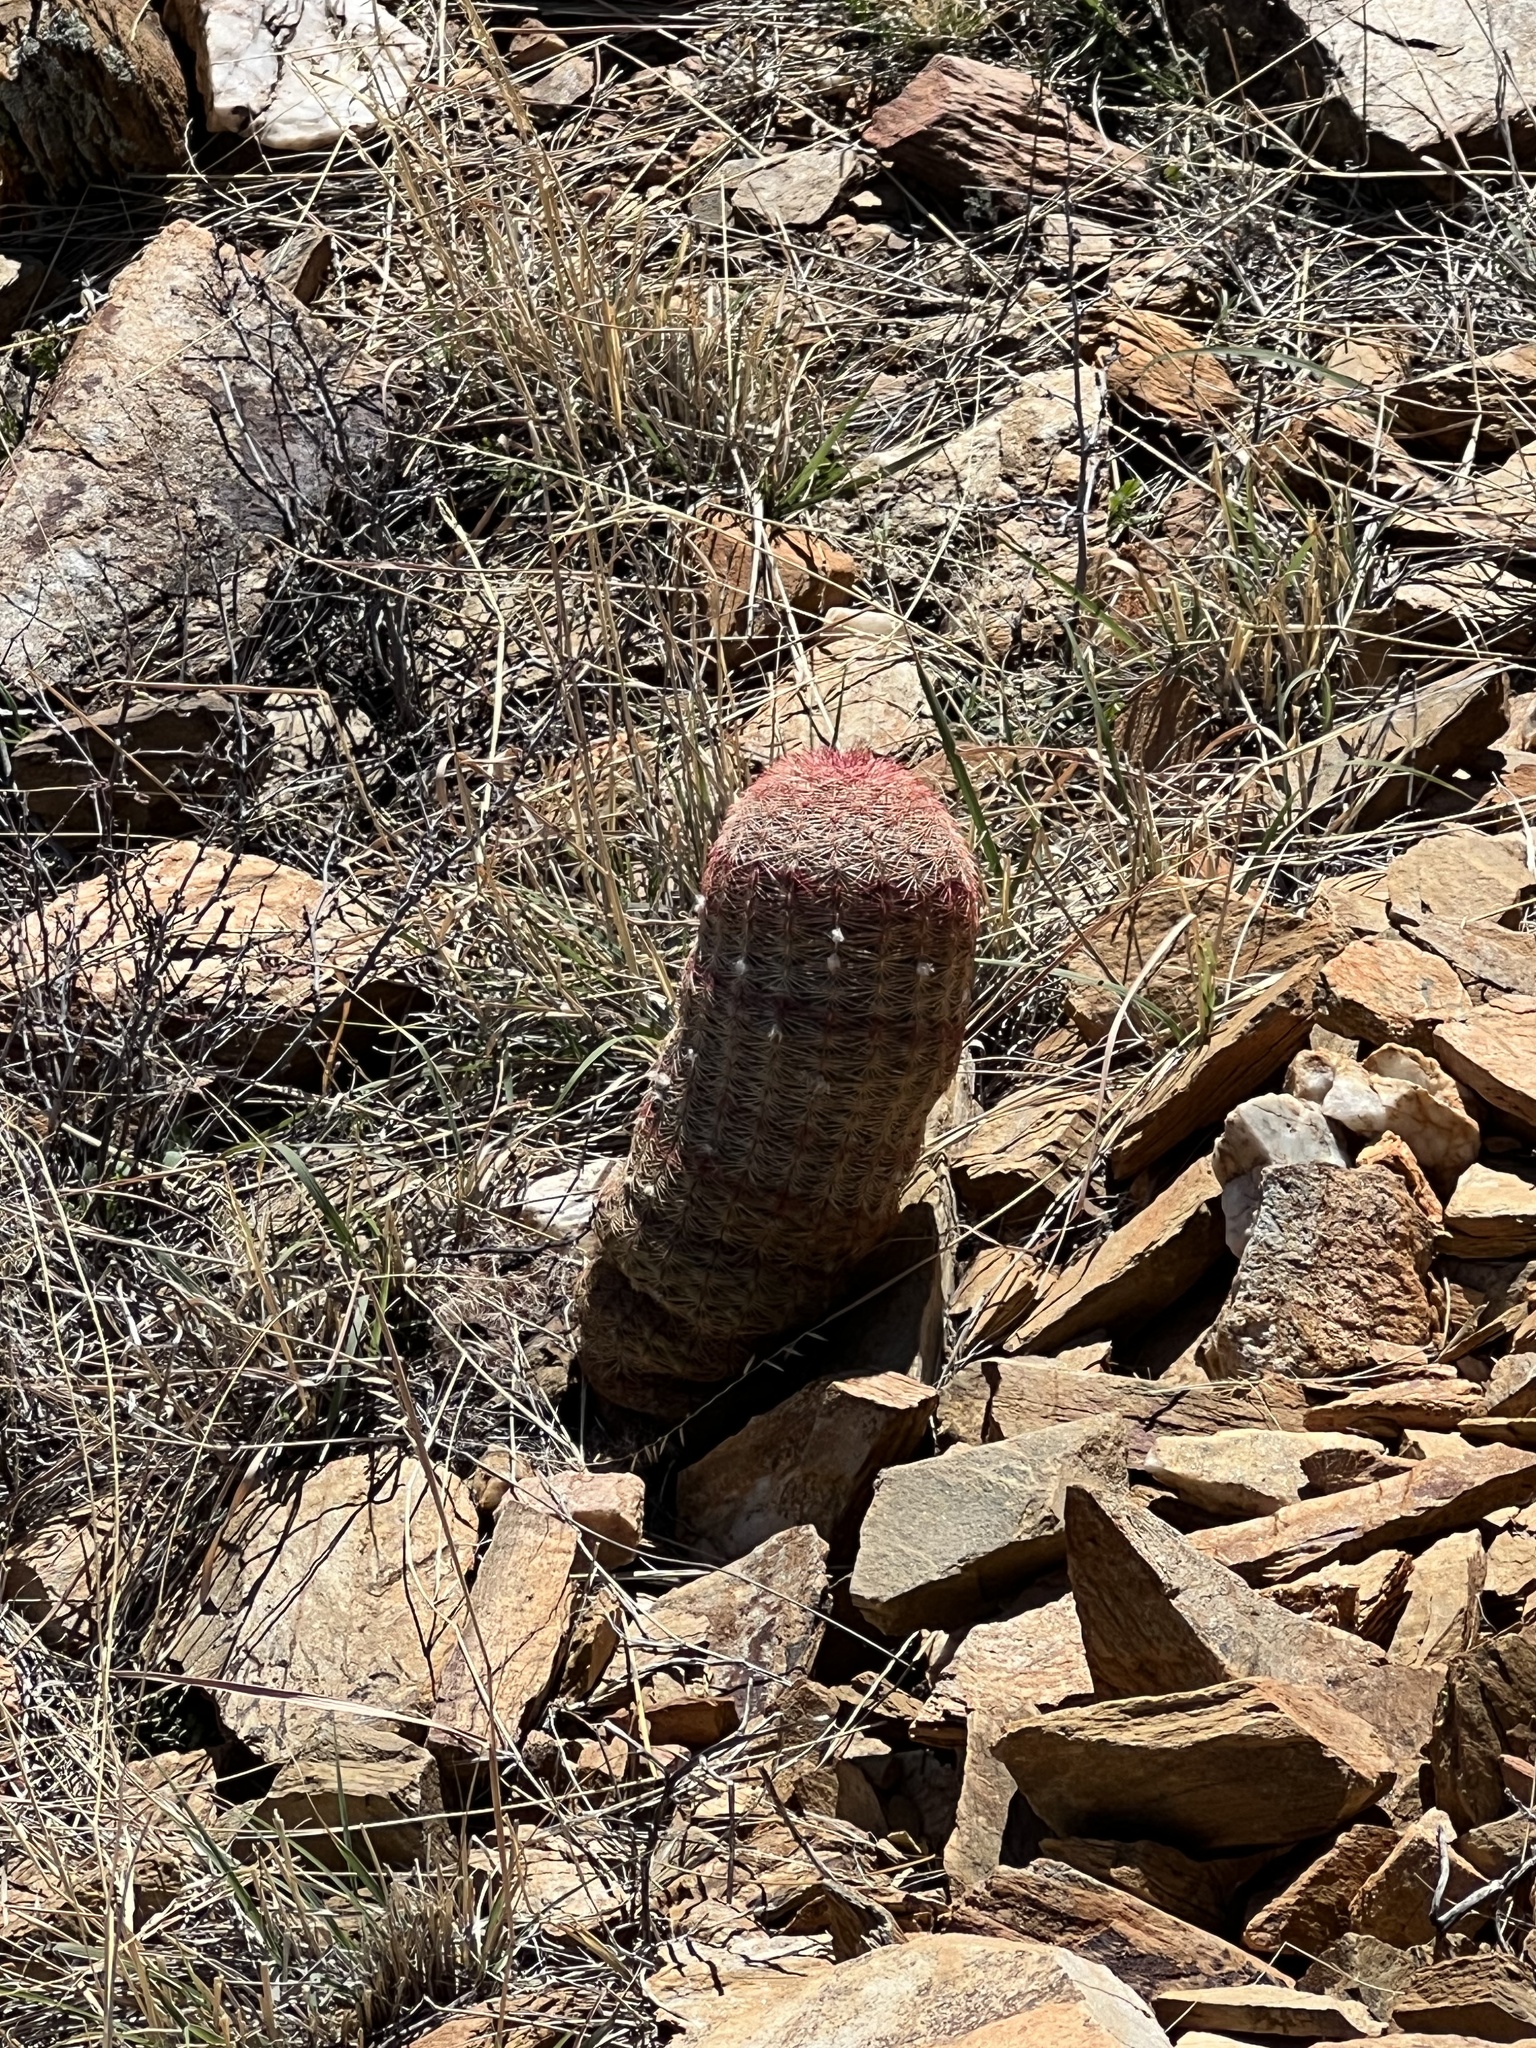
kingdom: Plantae
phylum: Tracheophyta
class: Magnoliopsida
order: Caryophyllales
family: Cactaceae
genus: Echinocereus
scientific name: Echinocereus rigidissimus
